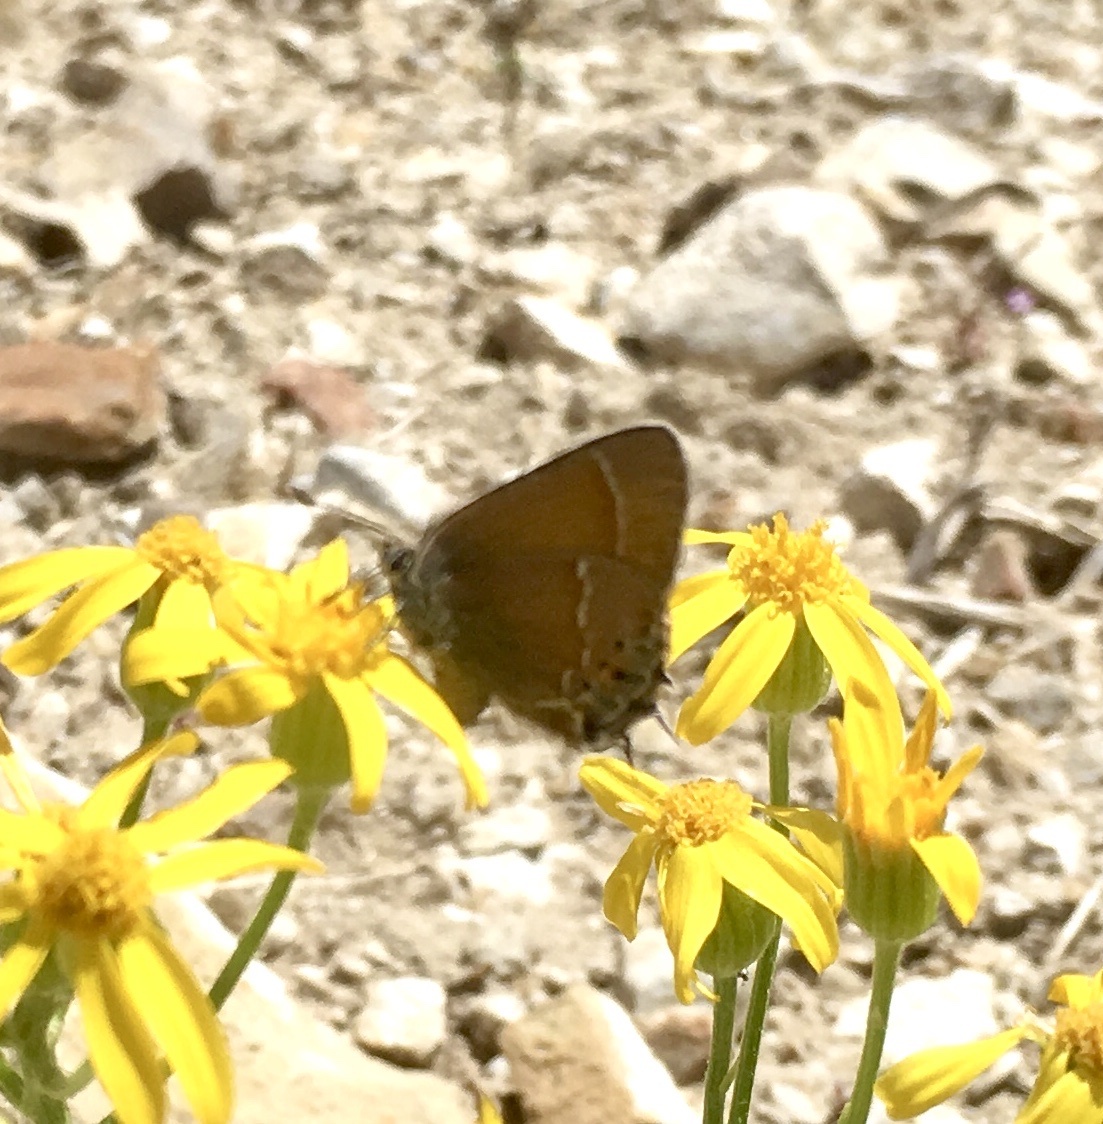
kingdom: Animalia
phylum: Arthropoda
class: Insecta
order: Lepidoptera
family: Lycaenidae
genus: Mitoura
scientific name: Mitoura gryneus
